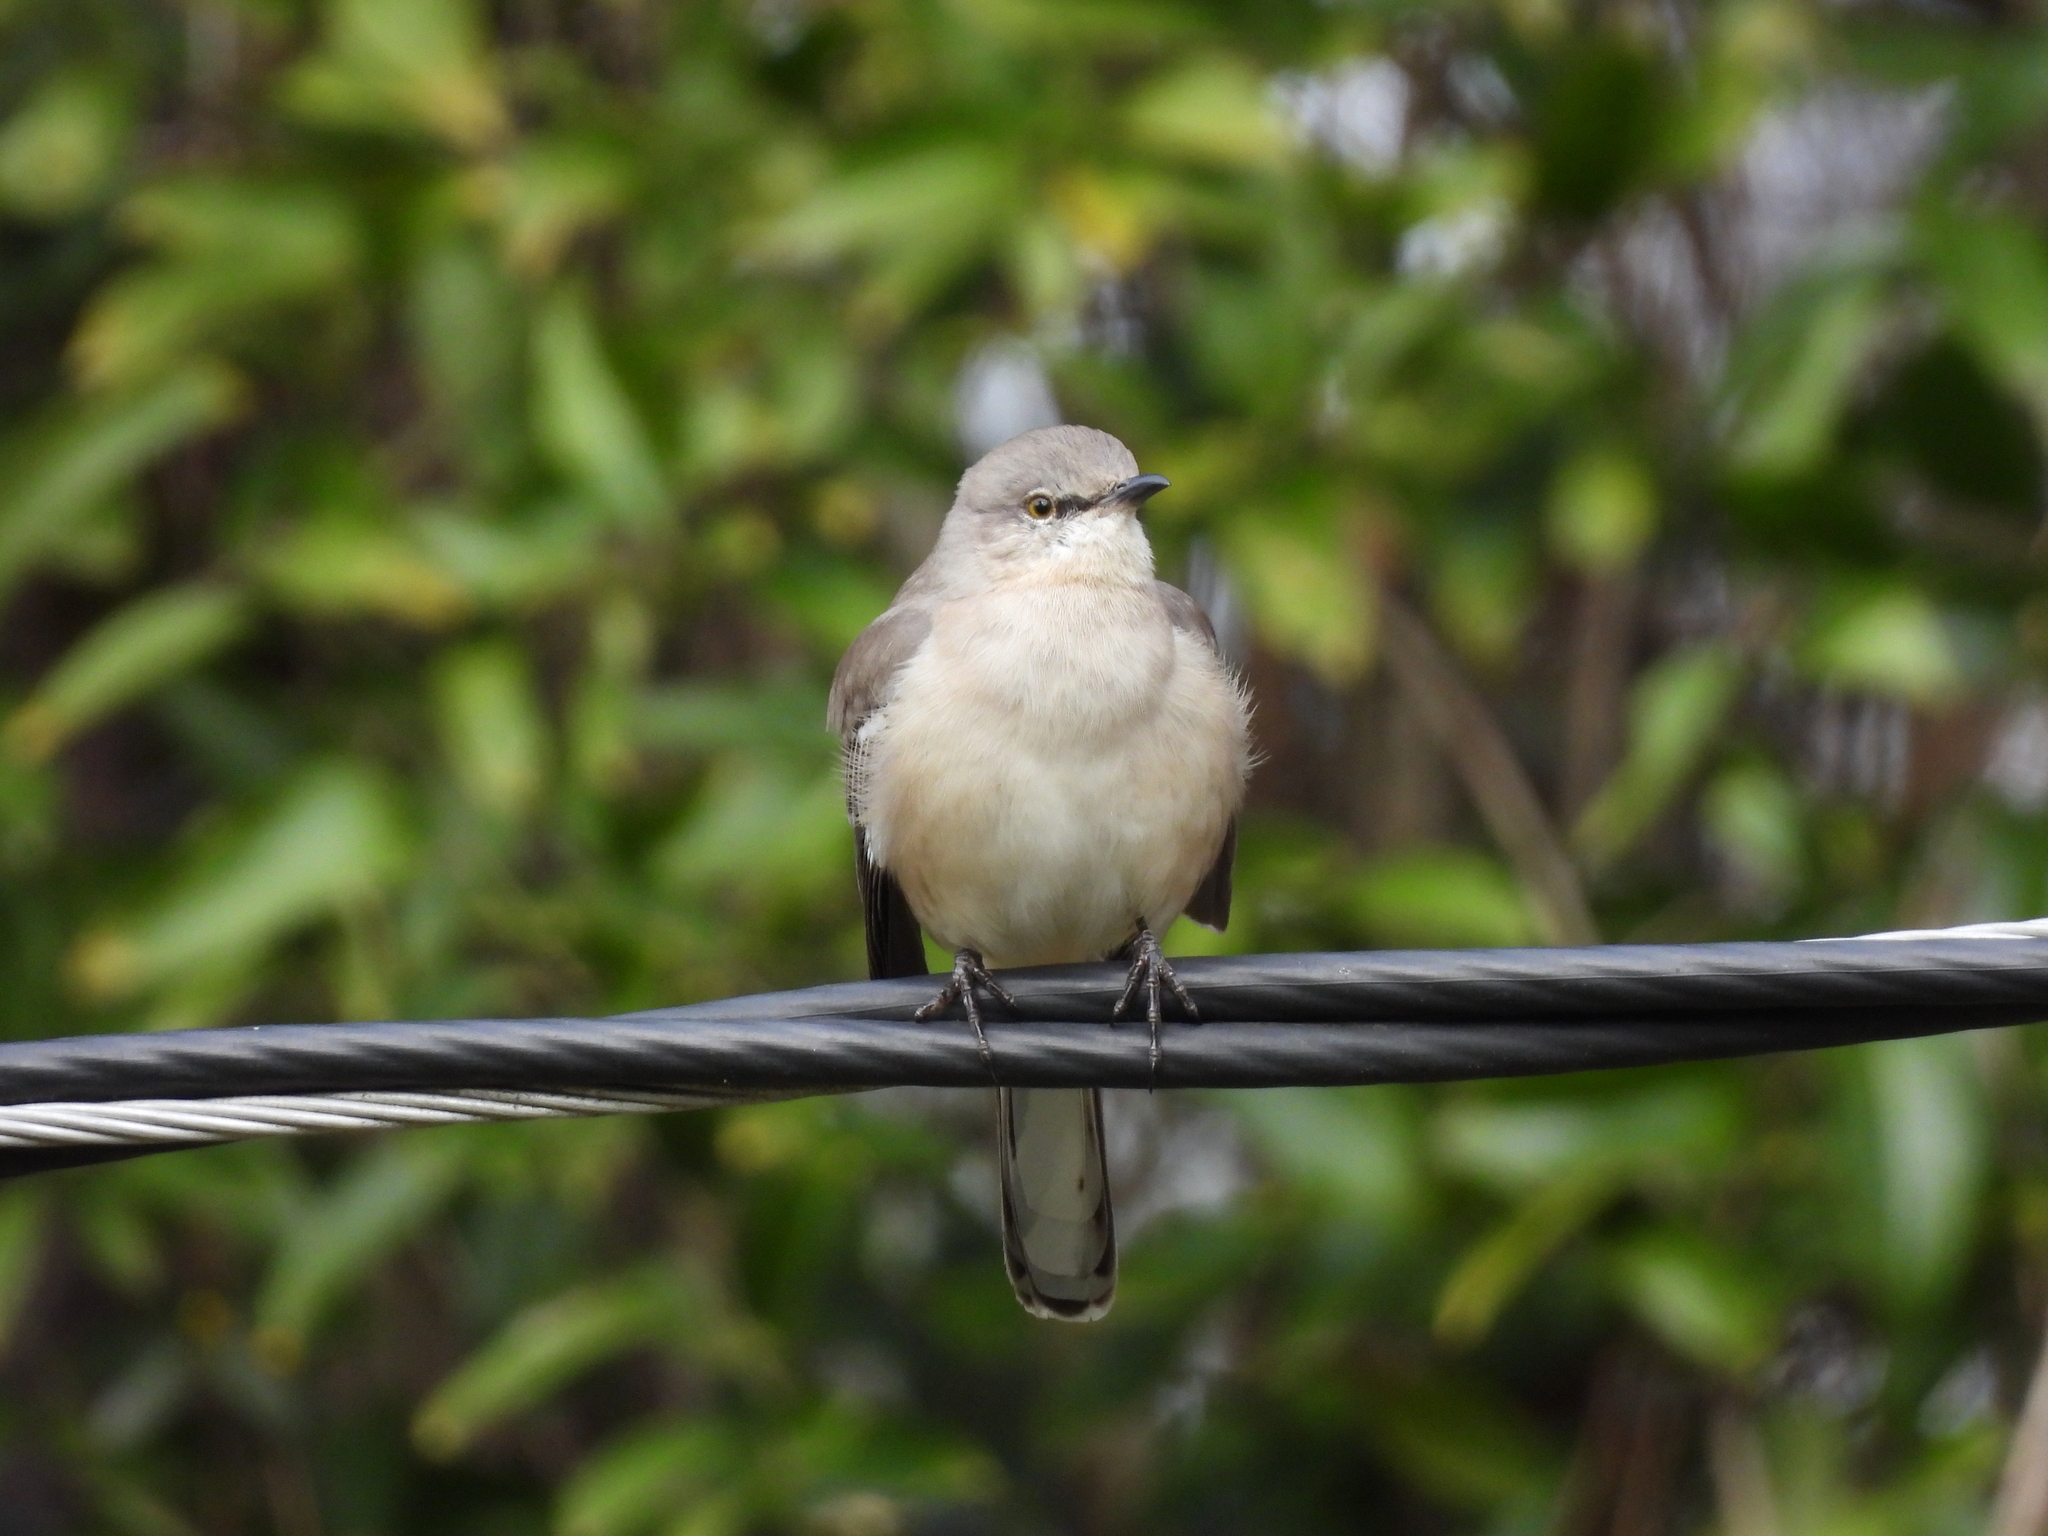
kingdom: Animalia
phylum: Chordata
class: Aves
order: Passeriformes
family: Mimidae
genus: Mimus
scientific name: Mimus polyglottos
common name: Northern mockingbird
